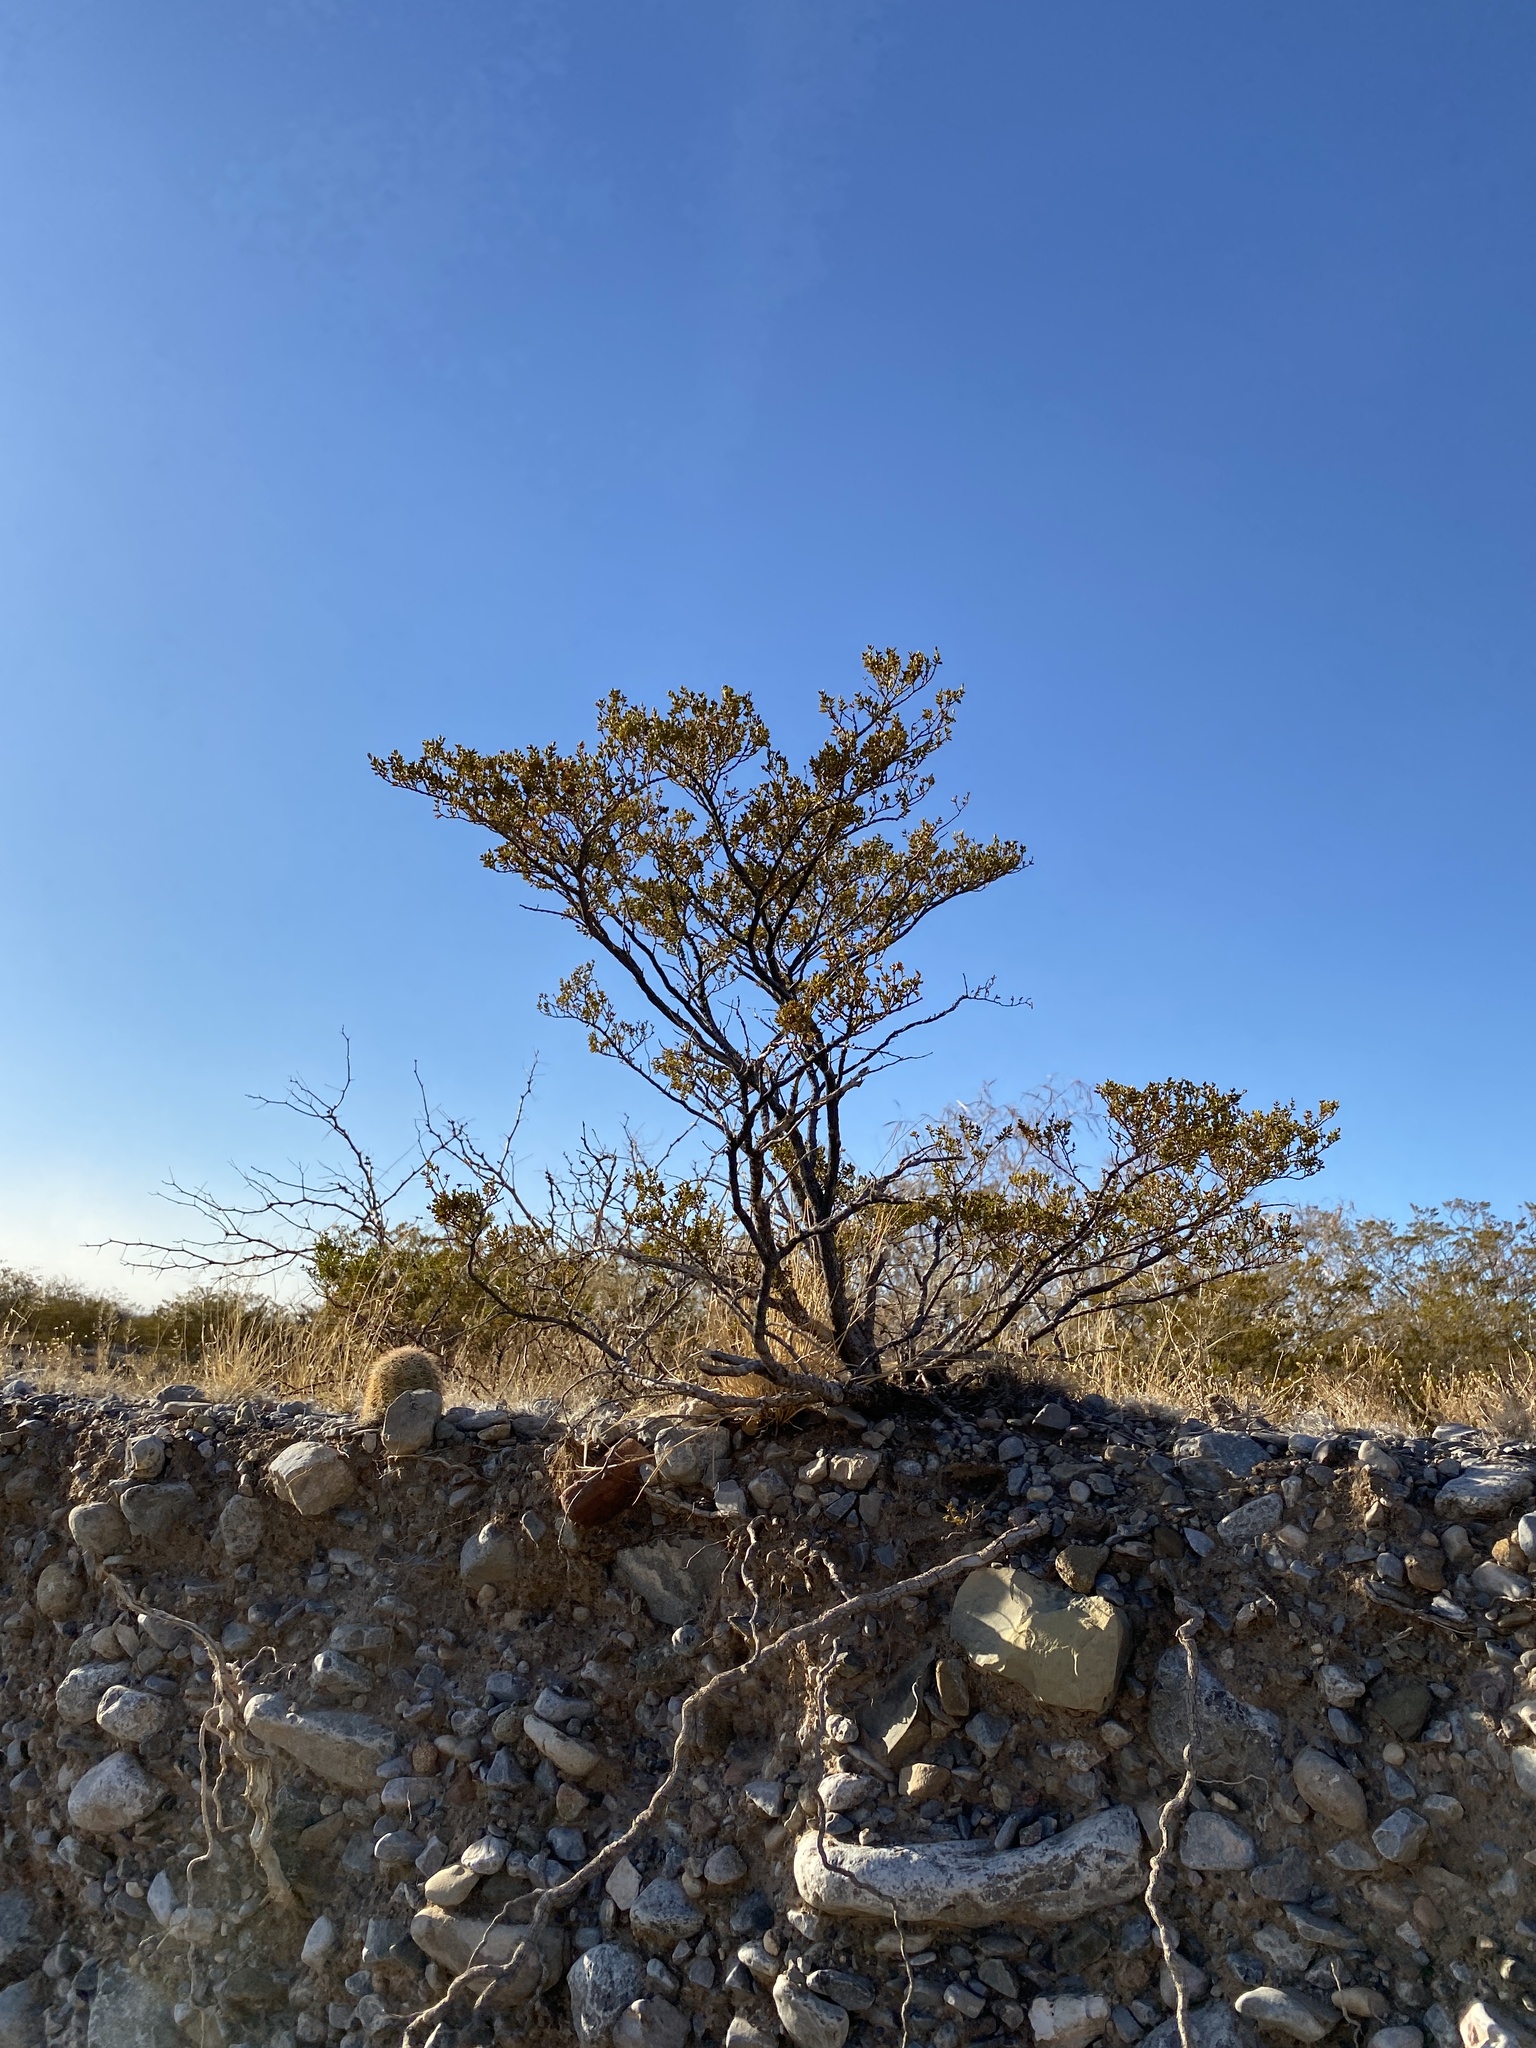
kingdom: Plantae
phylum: Tracheophyta
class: Magnoliopsida
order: Zygophyllales
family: Zygophyllaceae
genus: Larrea
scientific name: Larrea tridentata
